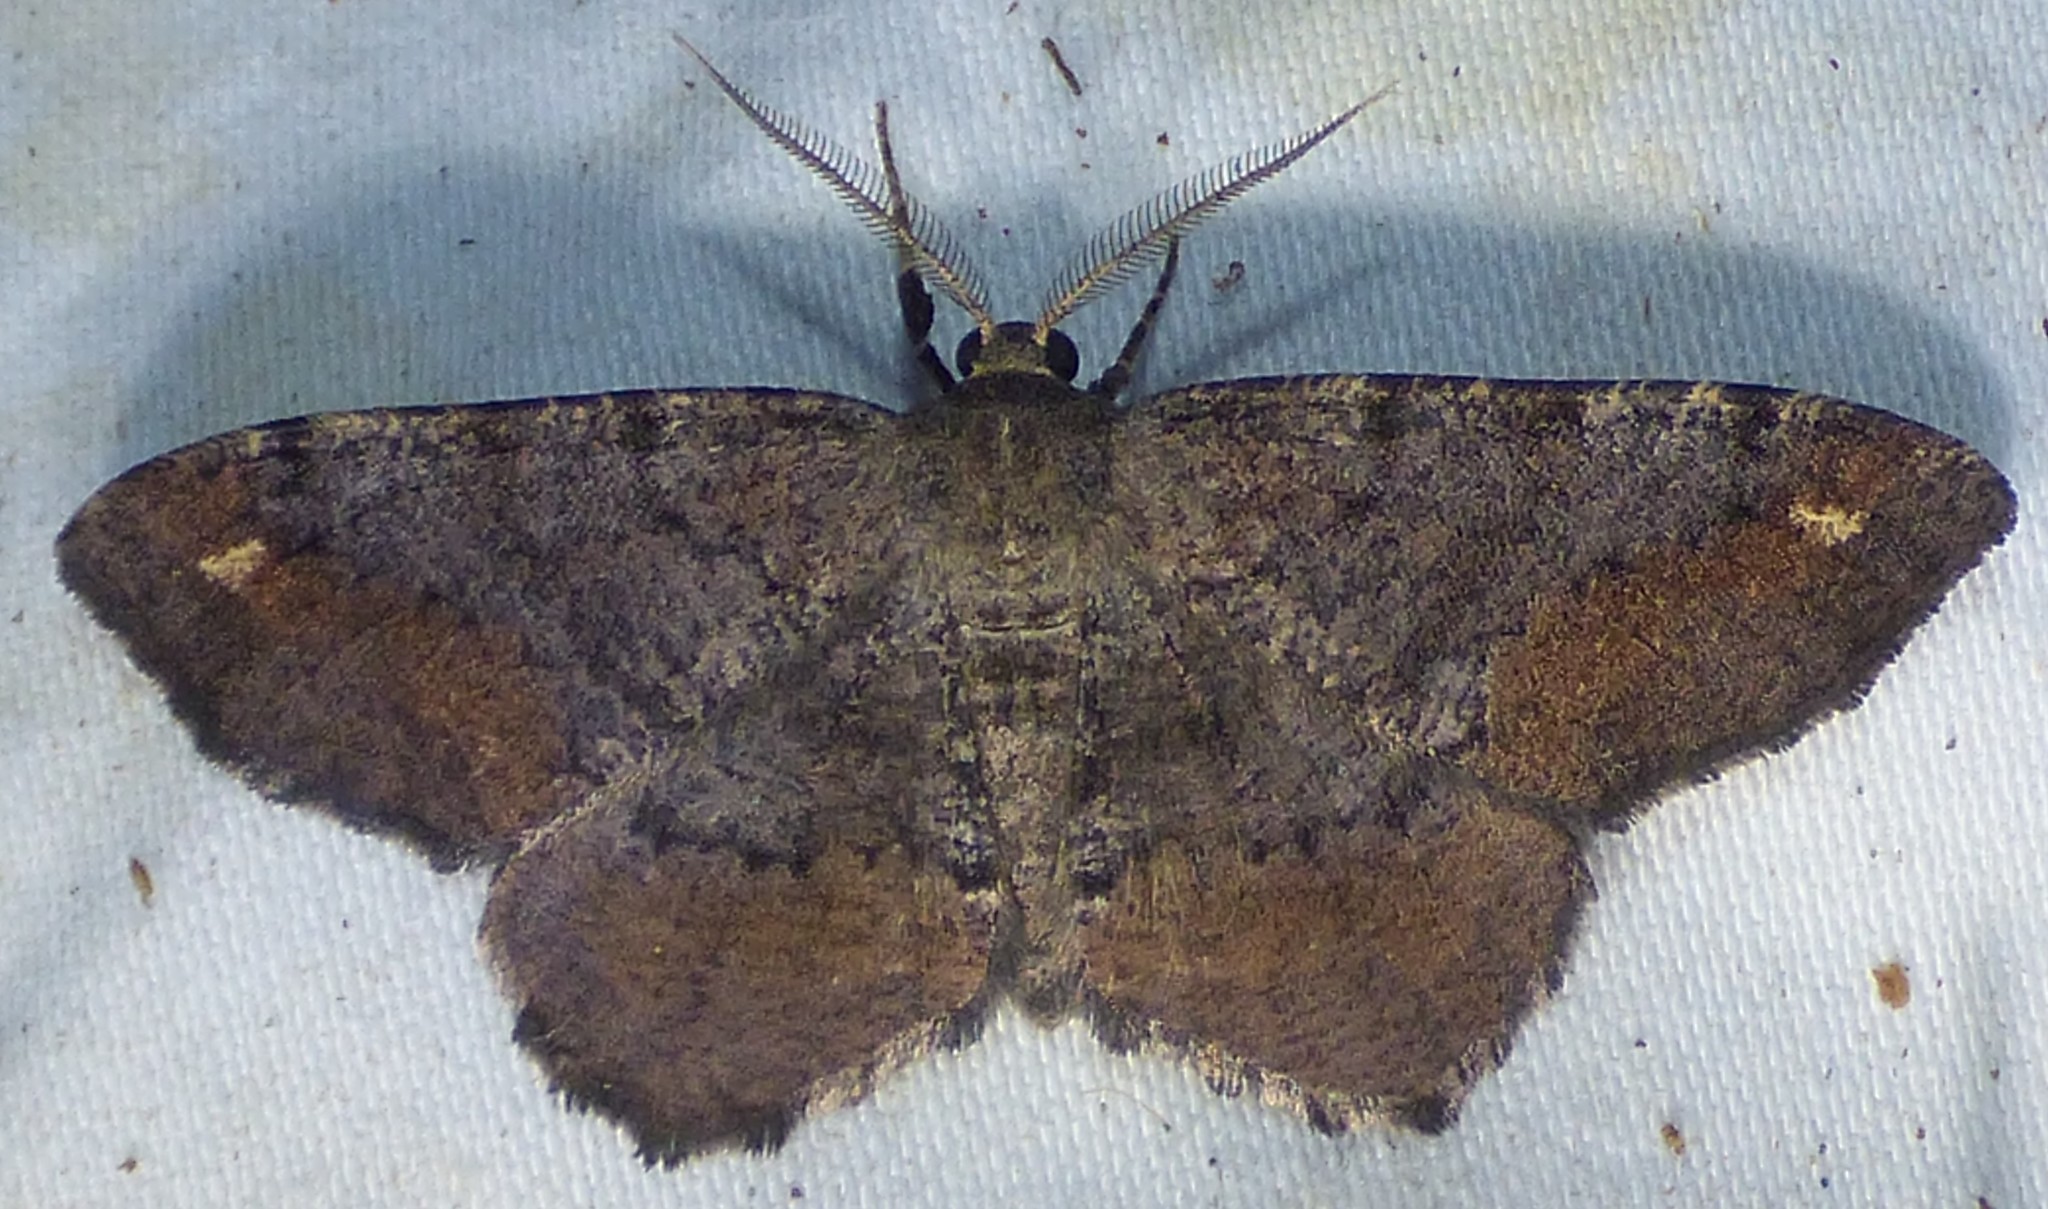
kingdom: Animalia
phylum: Arthropoda
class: Insecta
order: Lepidoptera
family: Geometridae
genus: Hypagyrtis
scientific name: Hypagyrtis esther
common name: Esther moth
